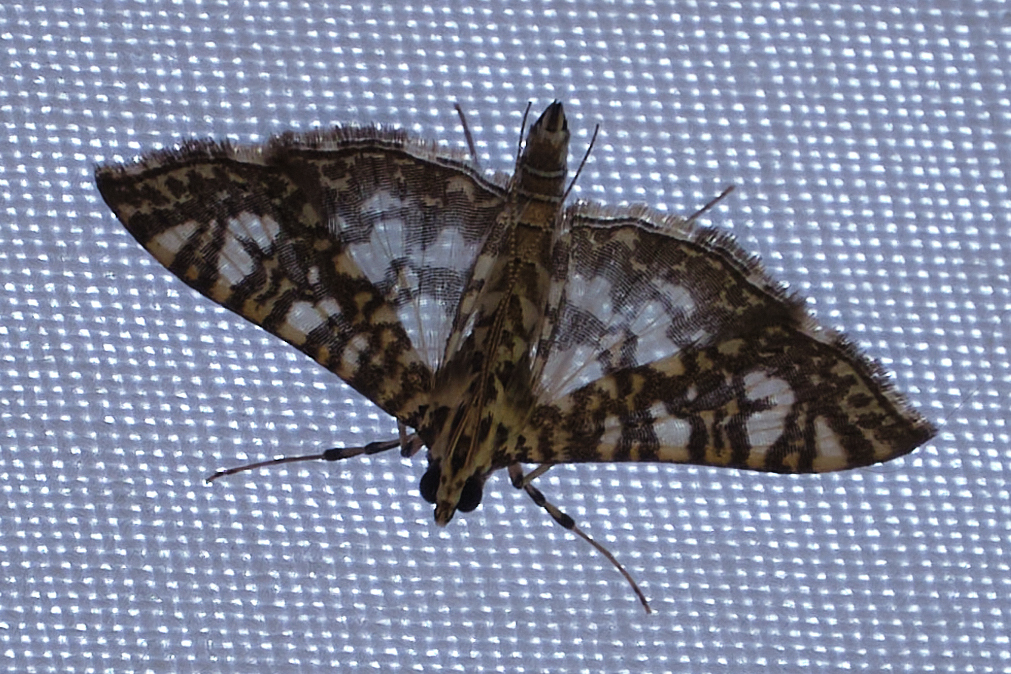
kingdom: Animalia
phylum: Arthropoda
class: Insecta
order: Lepidoptera
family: Crambidae
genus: Glyphodes
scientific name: Glyphodes onychinalis
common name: Swan plant moth
